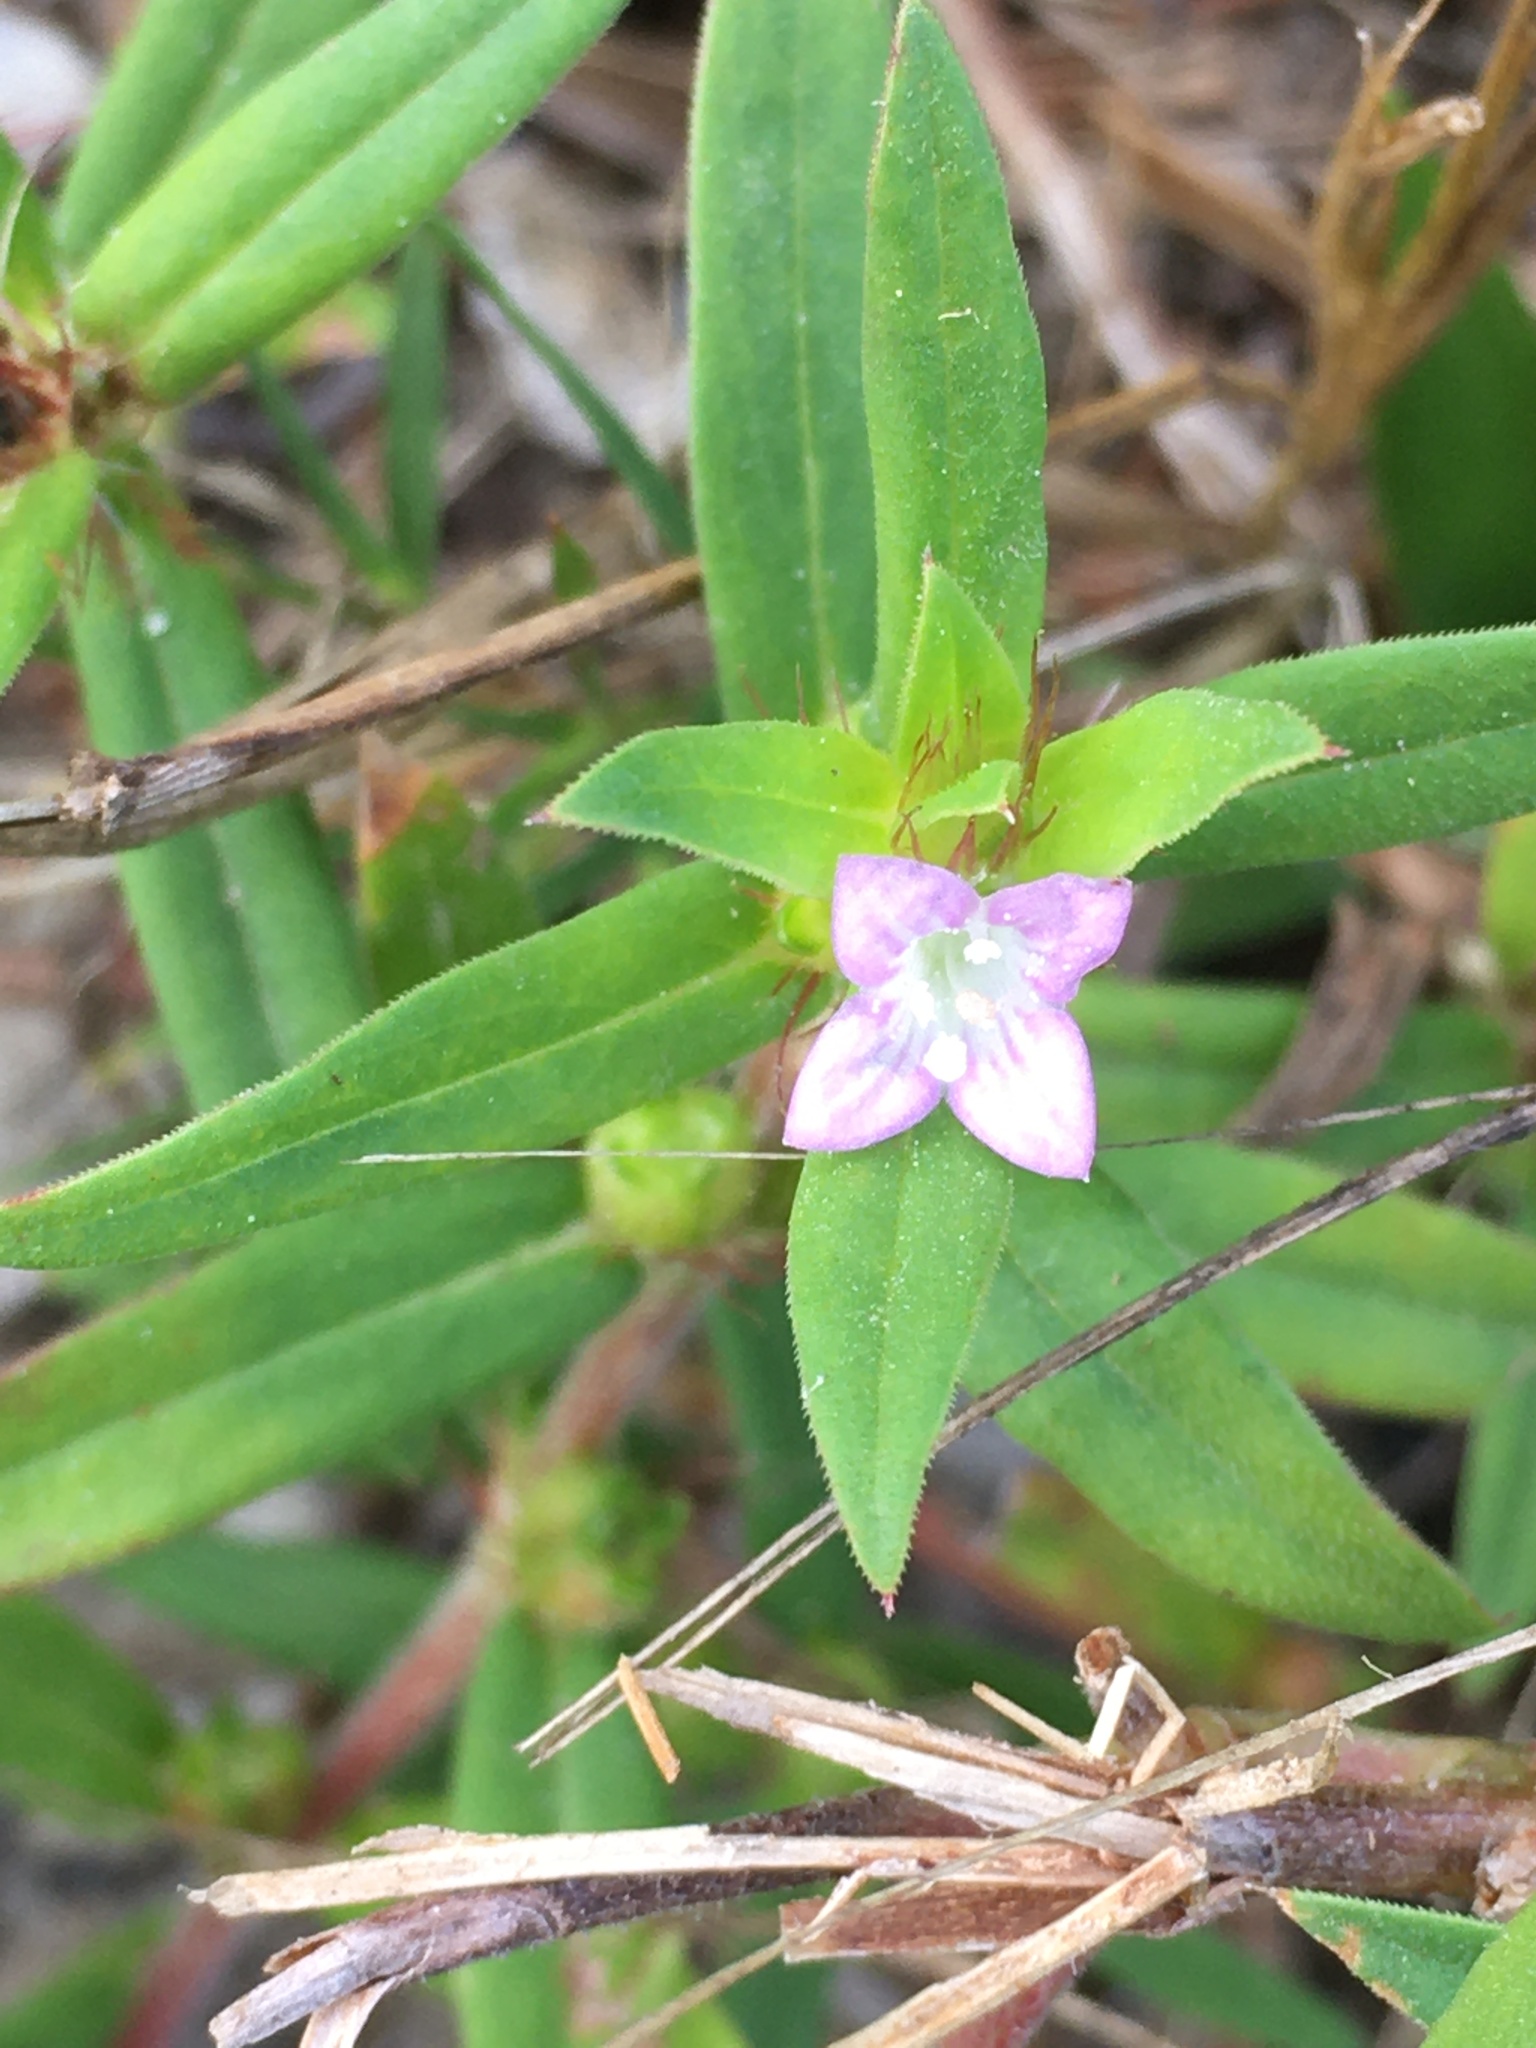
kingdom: Plantae
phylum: Tracheophyta
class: Magnoliopsida
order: Gentianales
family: Rubiaceae
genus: Hexasepalum
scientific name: Hexasepalum teres
